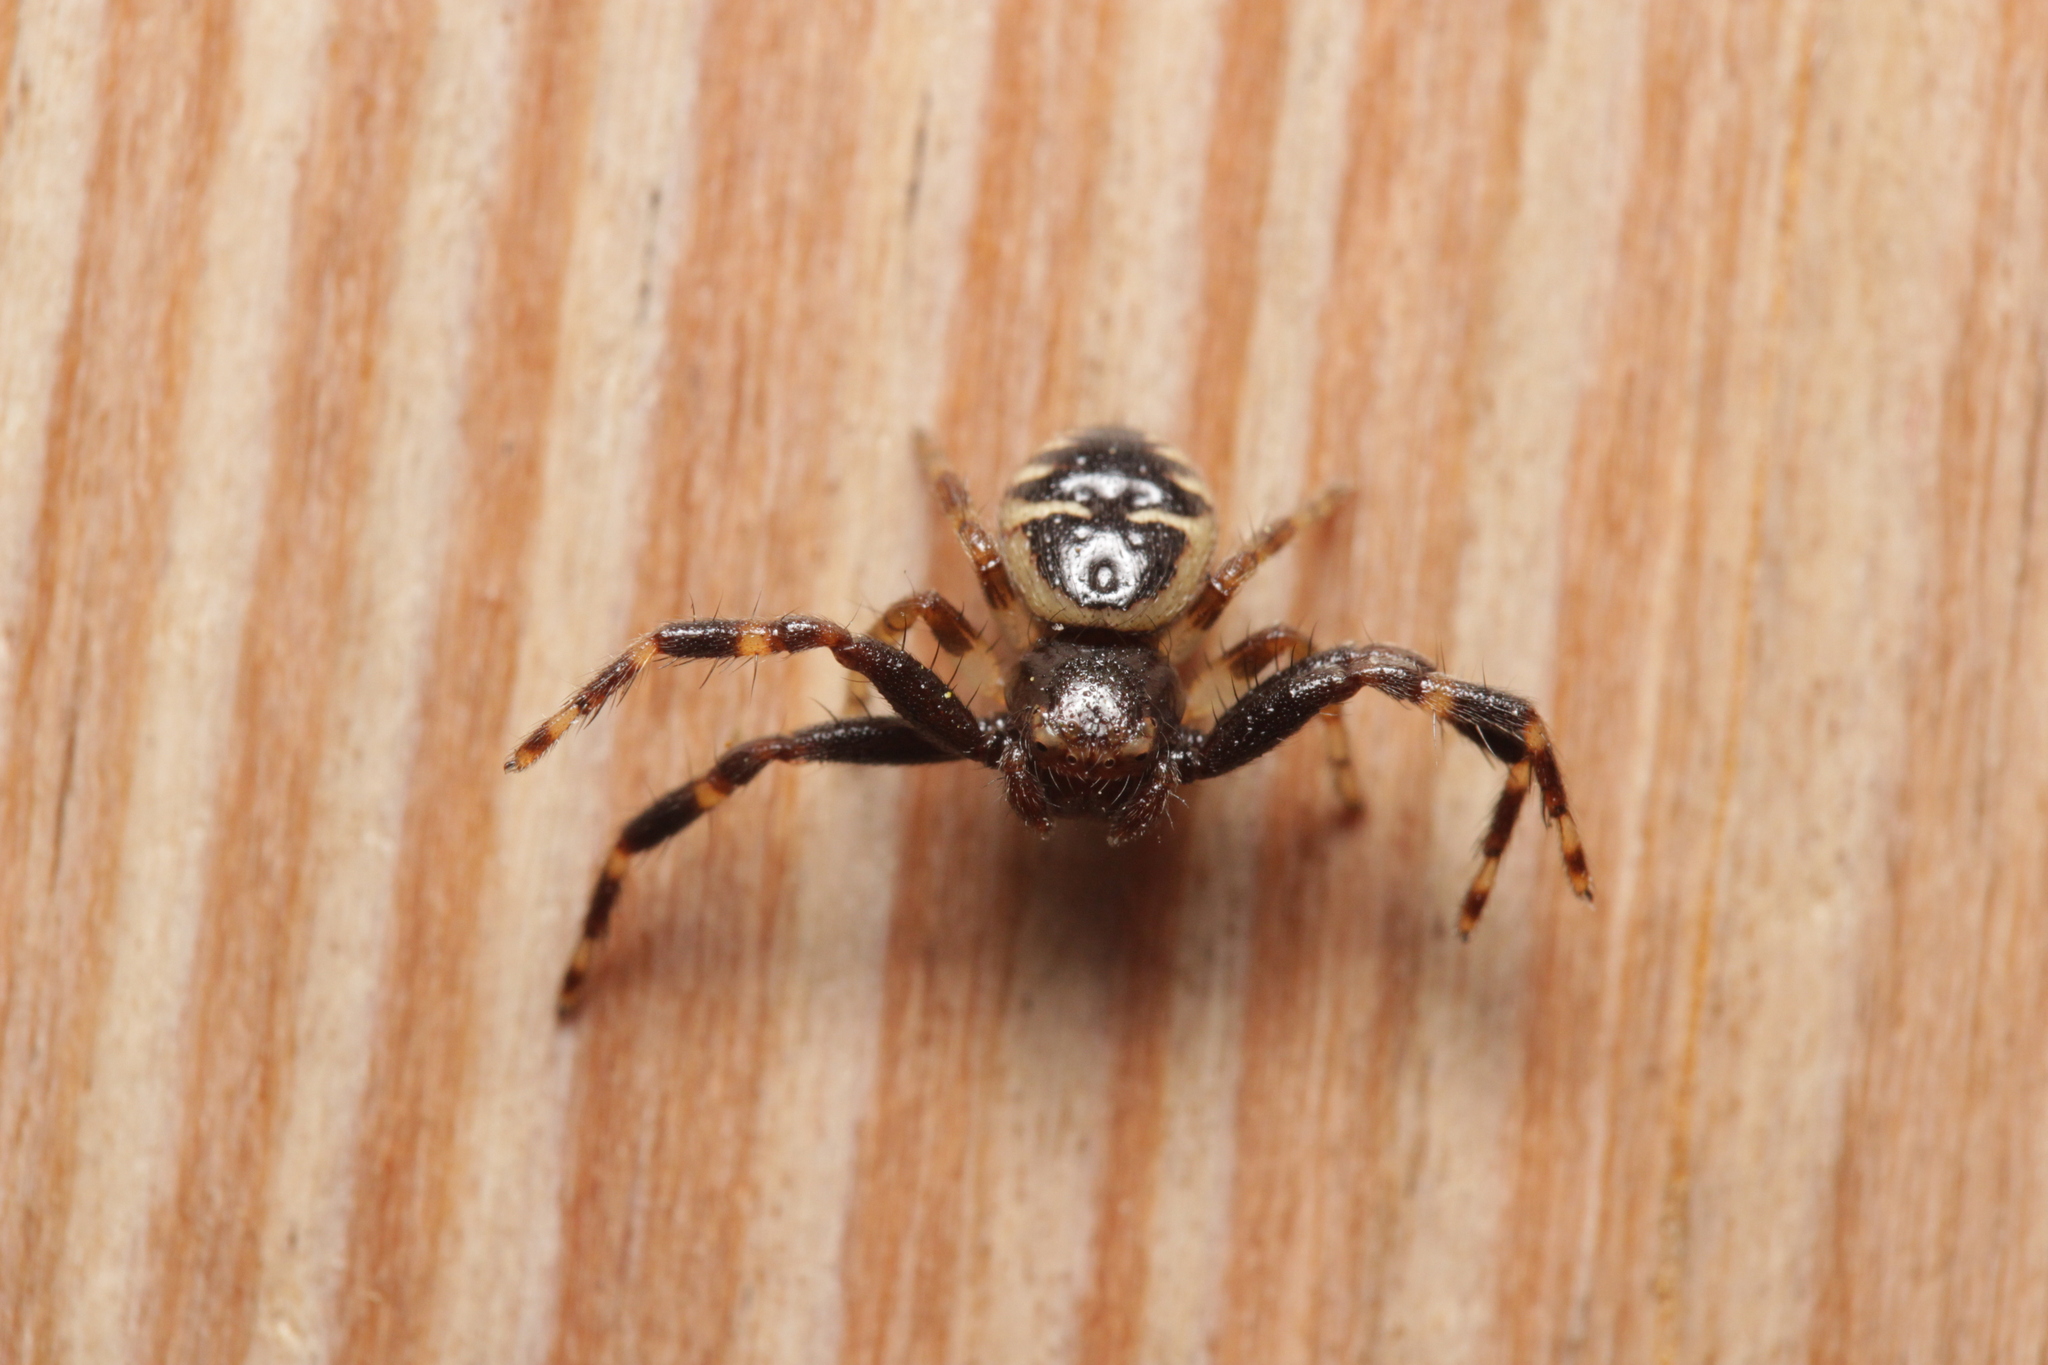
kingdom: Animalia
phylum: Arthropoda
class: Arachnida
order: Araneae
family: Thomisidae
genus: Synema
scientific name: Synema globosum
